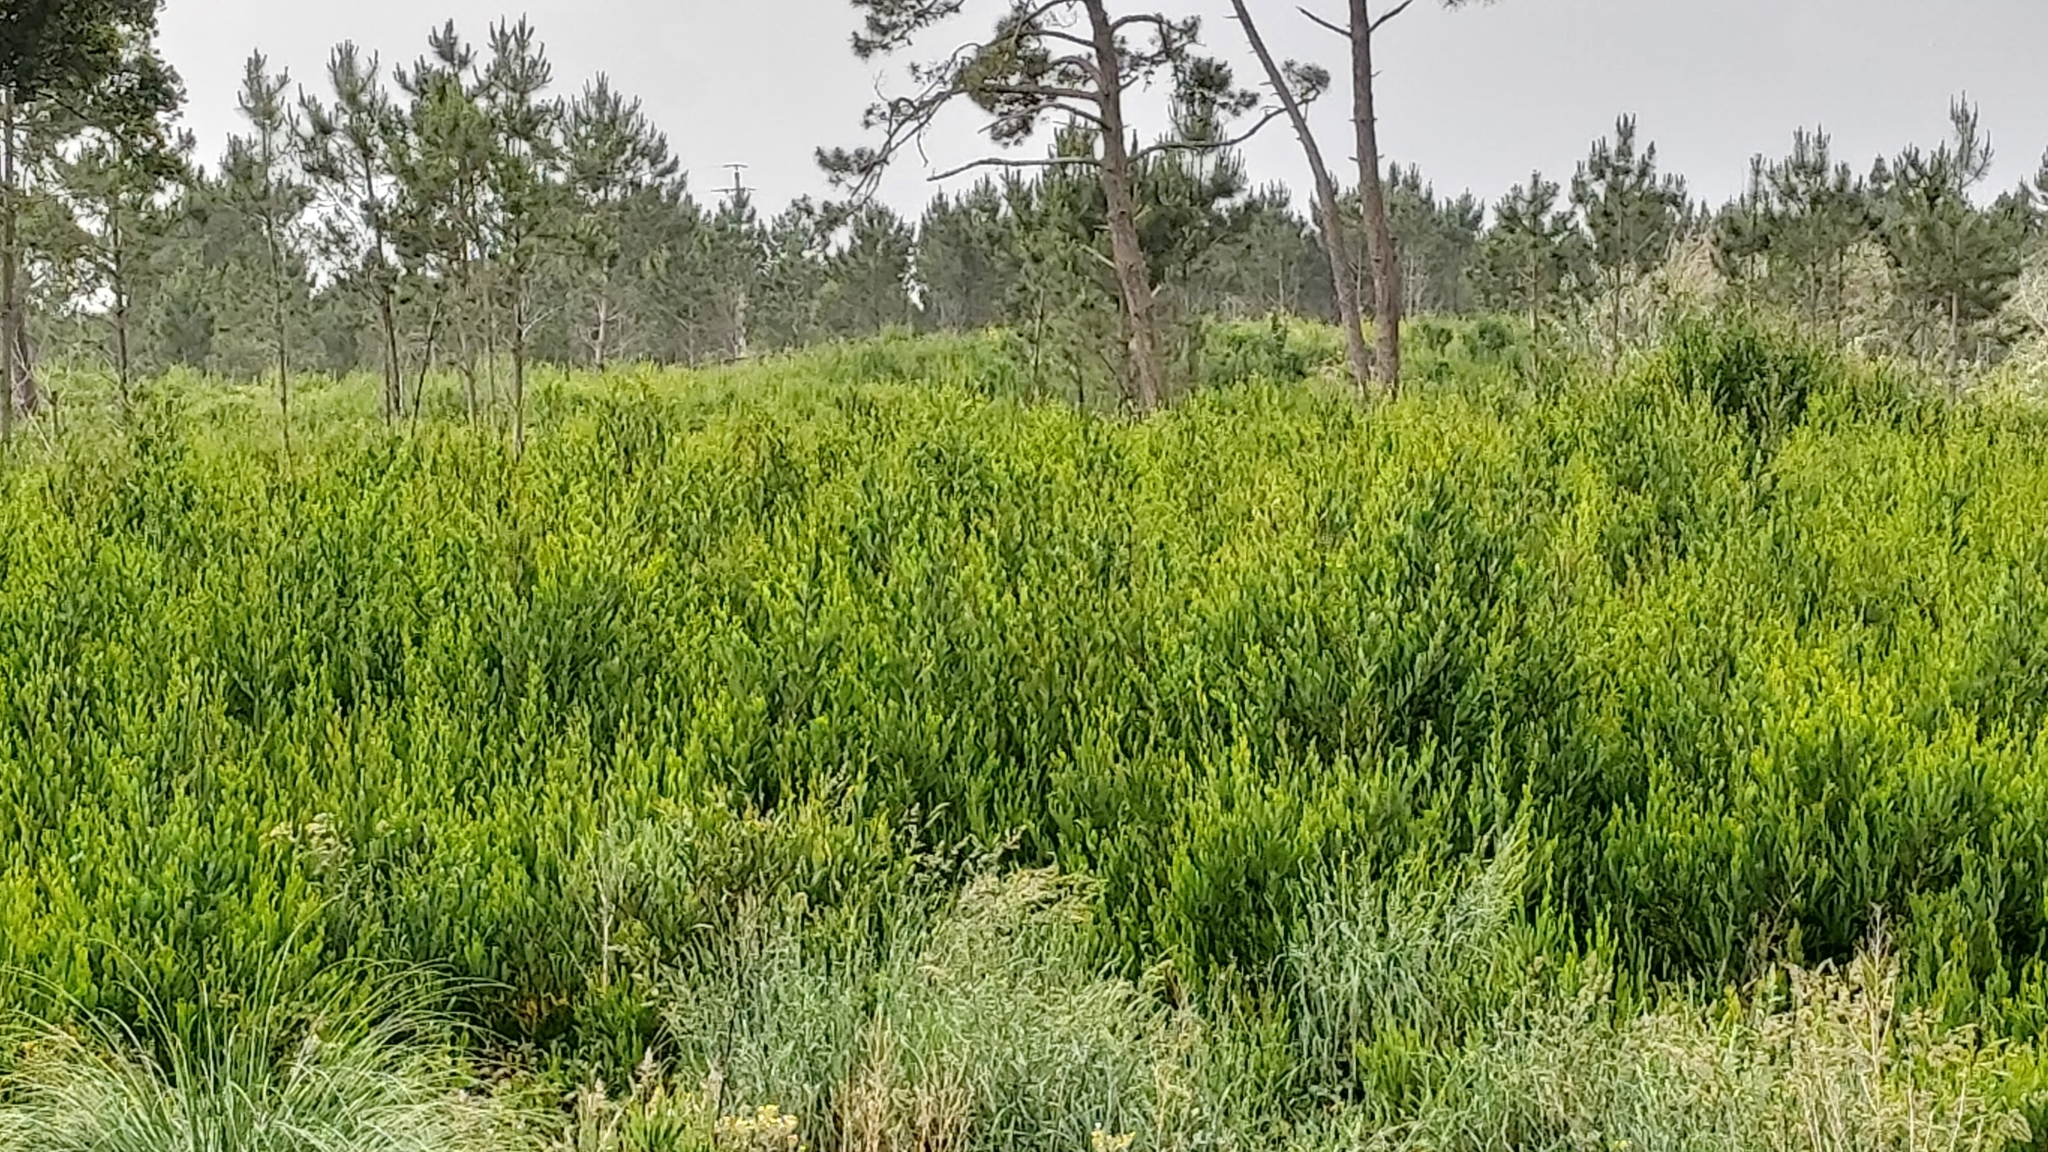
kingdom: Plantae
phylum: Tracheophyta
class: Magnoliopsida
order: Fabales
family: Fabaceae
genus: Acacia
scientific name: Acacia longifolia
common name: Sydney golden wattle
